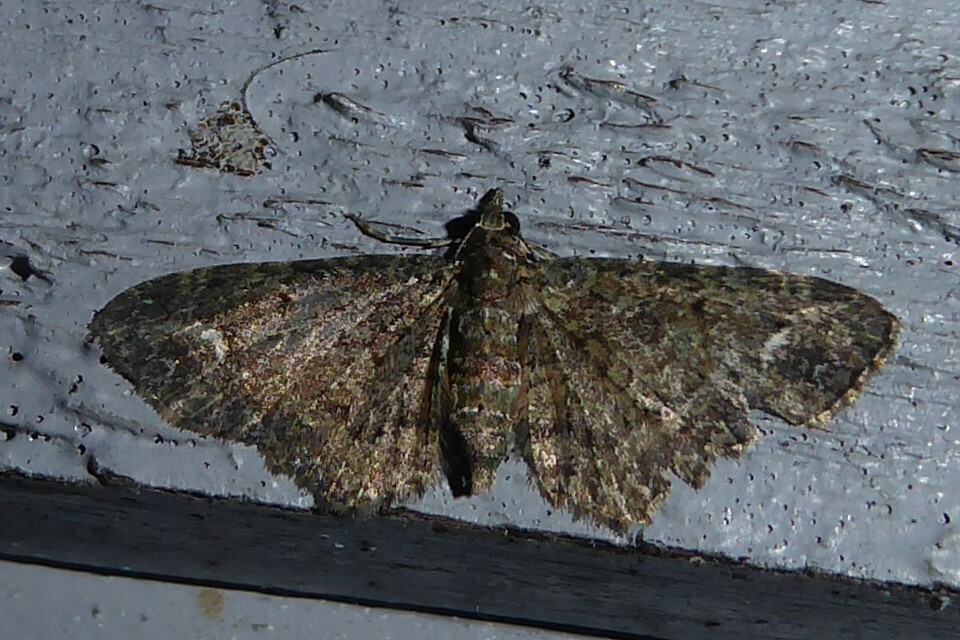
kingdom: Animalia
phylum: Arthropoda
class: Insecta
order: Lepidoptera
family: Geometridae
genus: Pasiphilodes
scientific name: Pasiphilodes testulata
